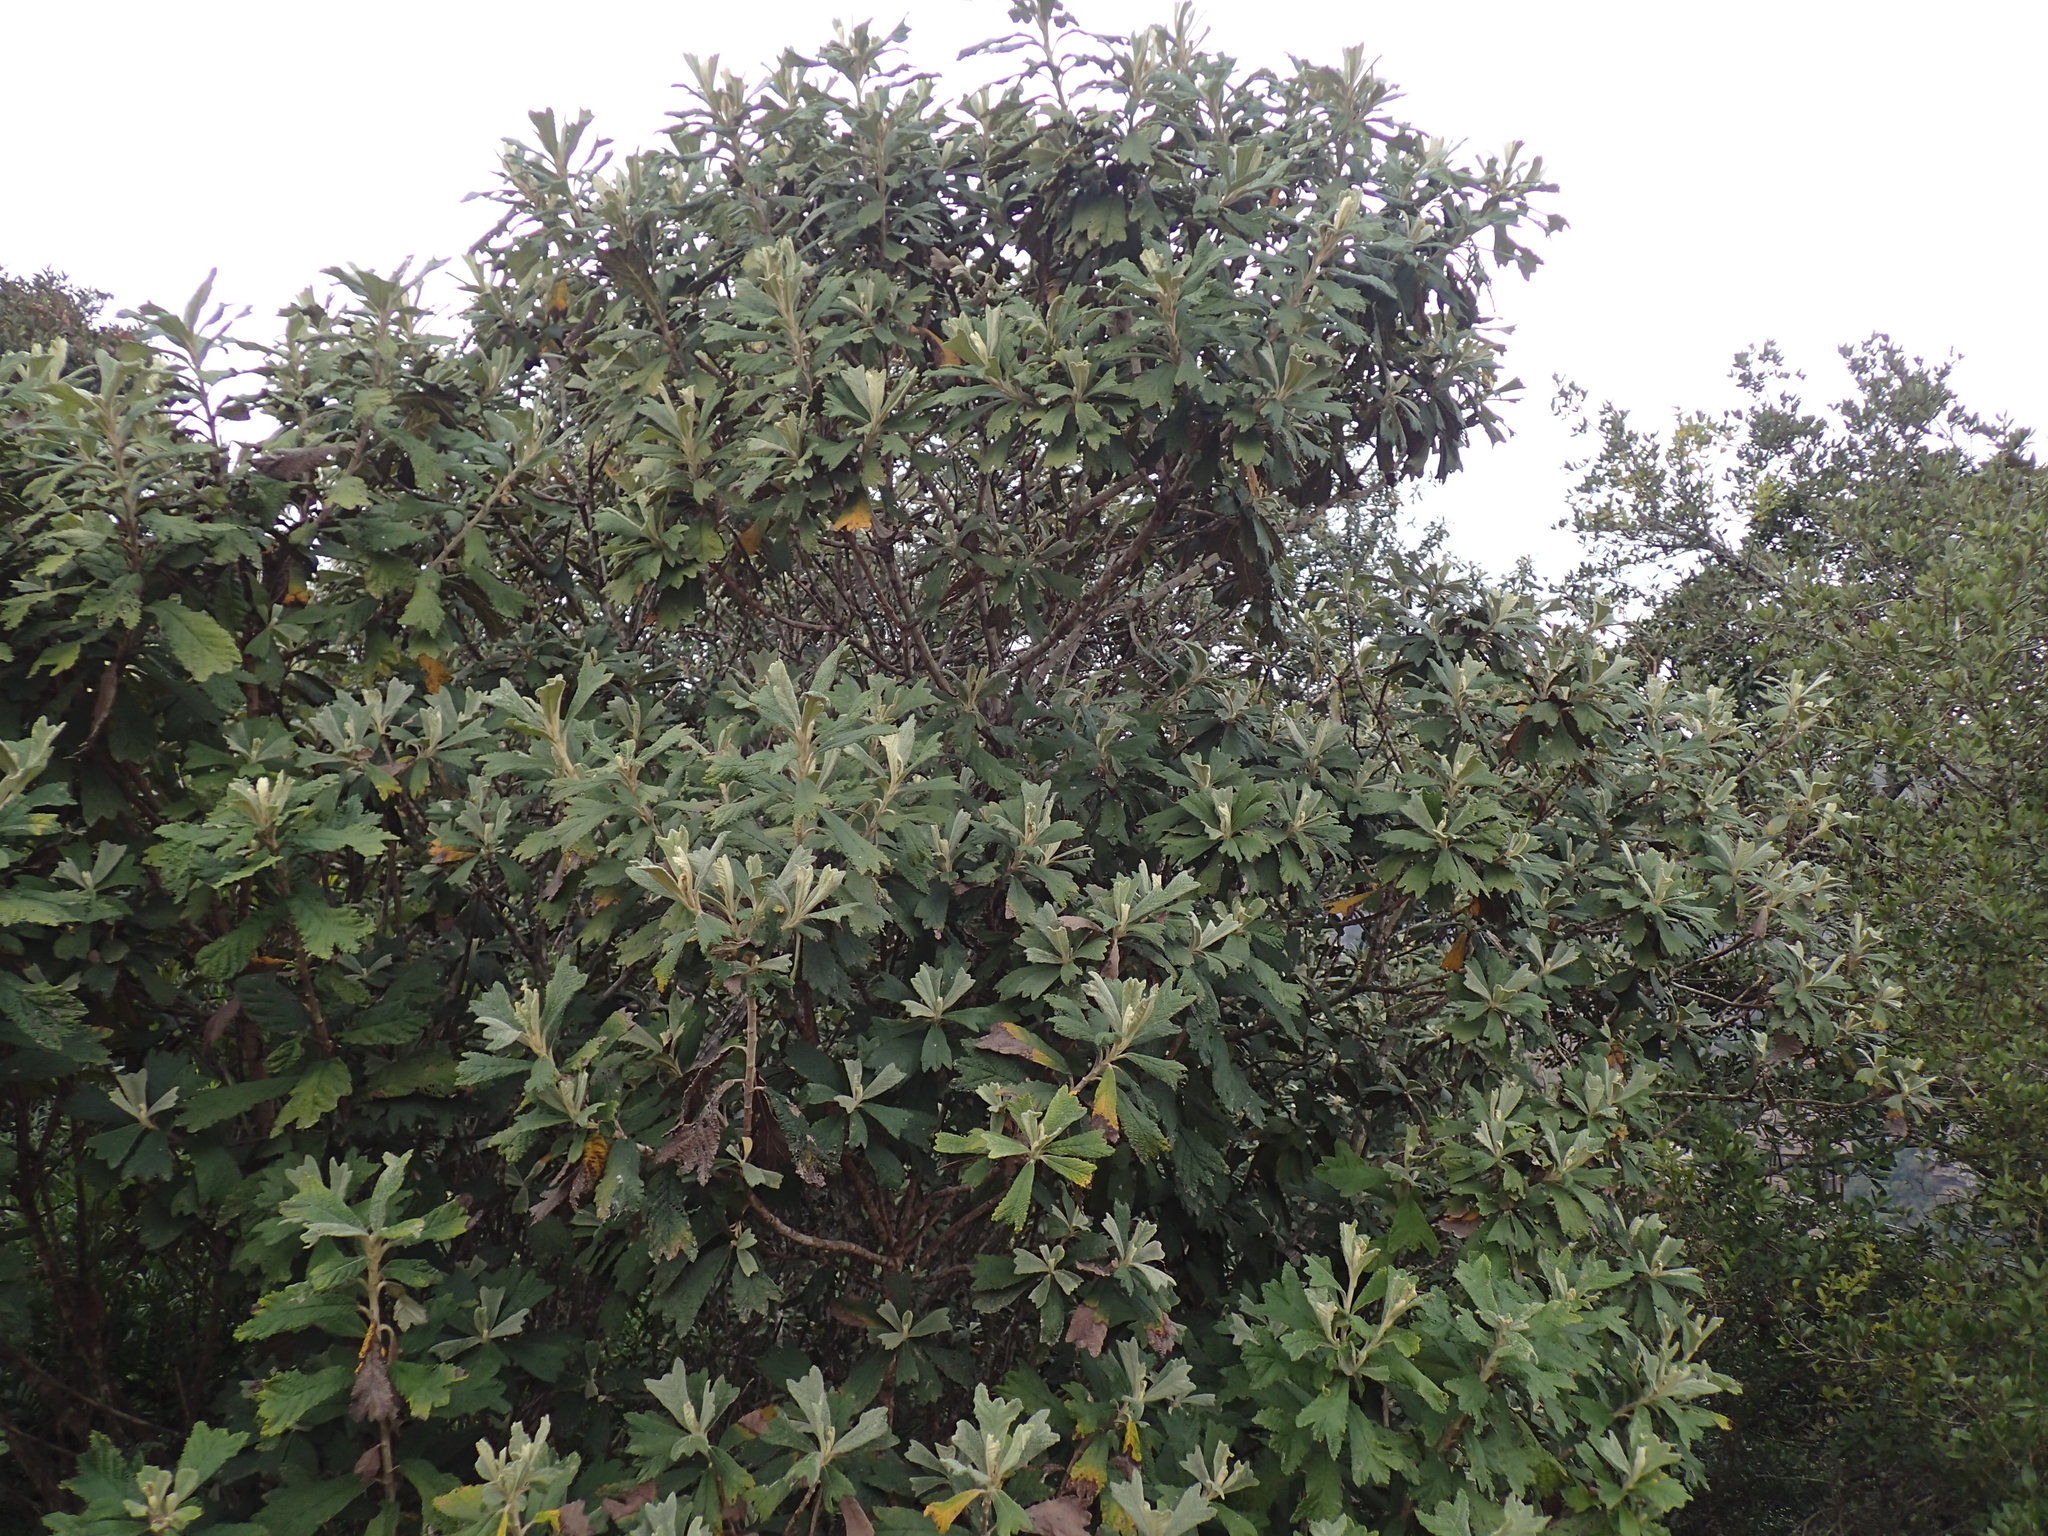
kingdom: Plantae
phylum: Tracheophyta
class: Magnoliopsida
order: Asterales
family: Asteraceae
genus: Tarchonanthus
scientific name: Tarchonanthus trilobus
